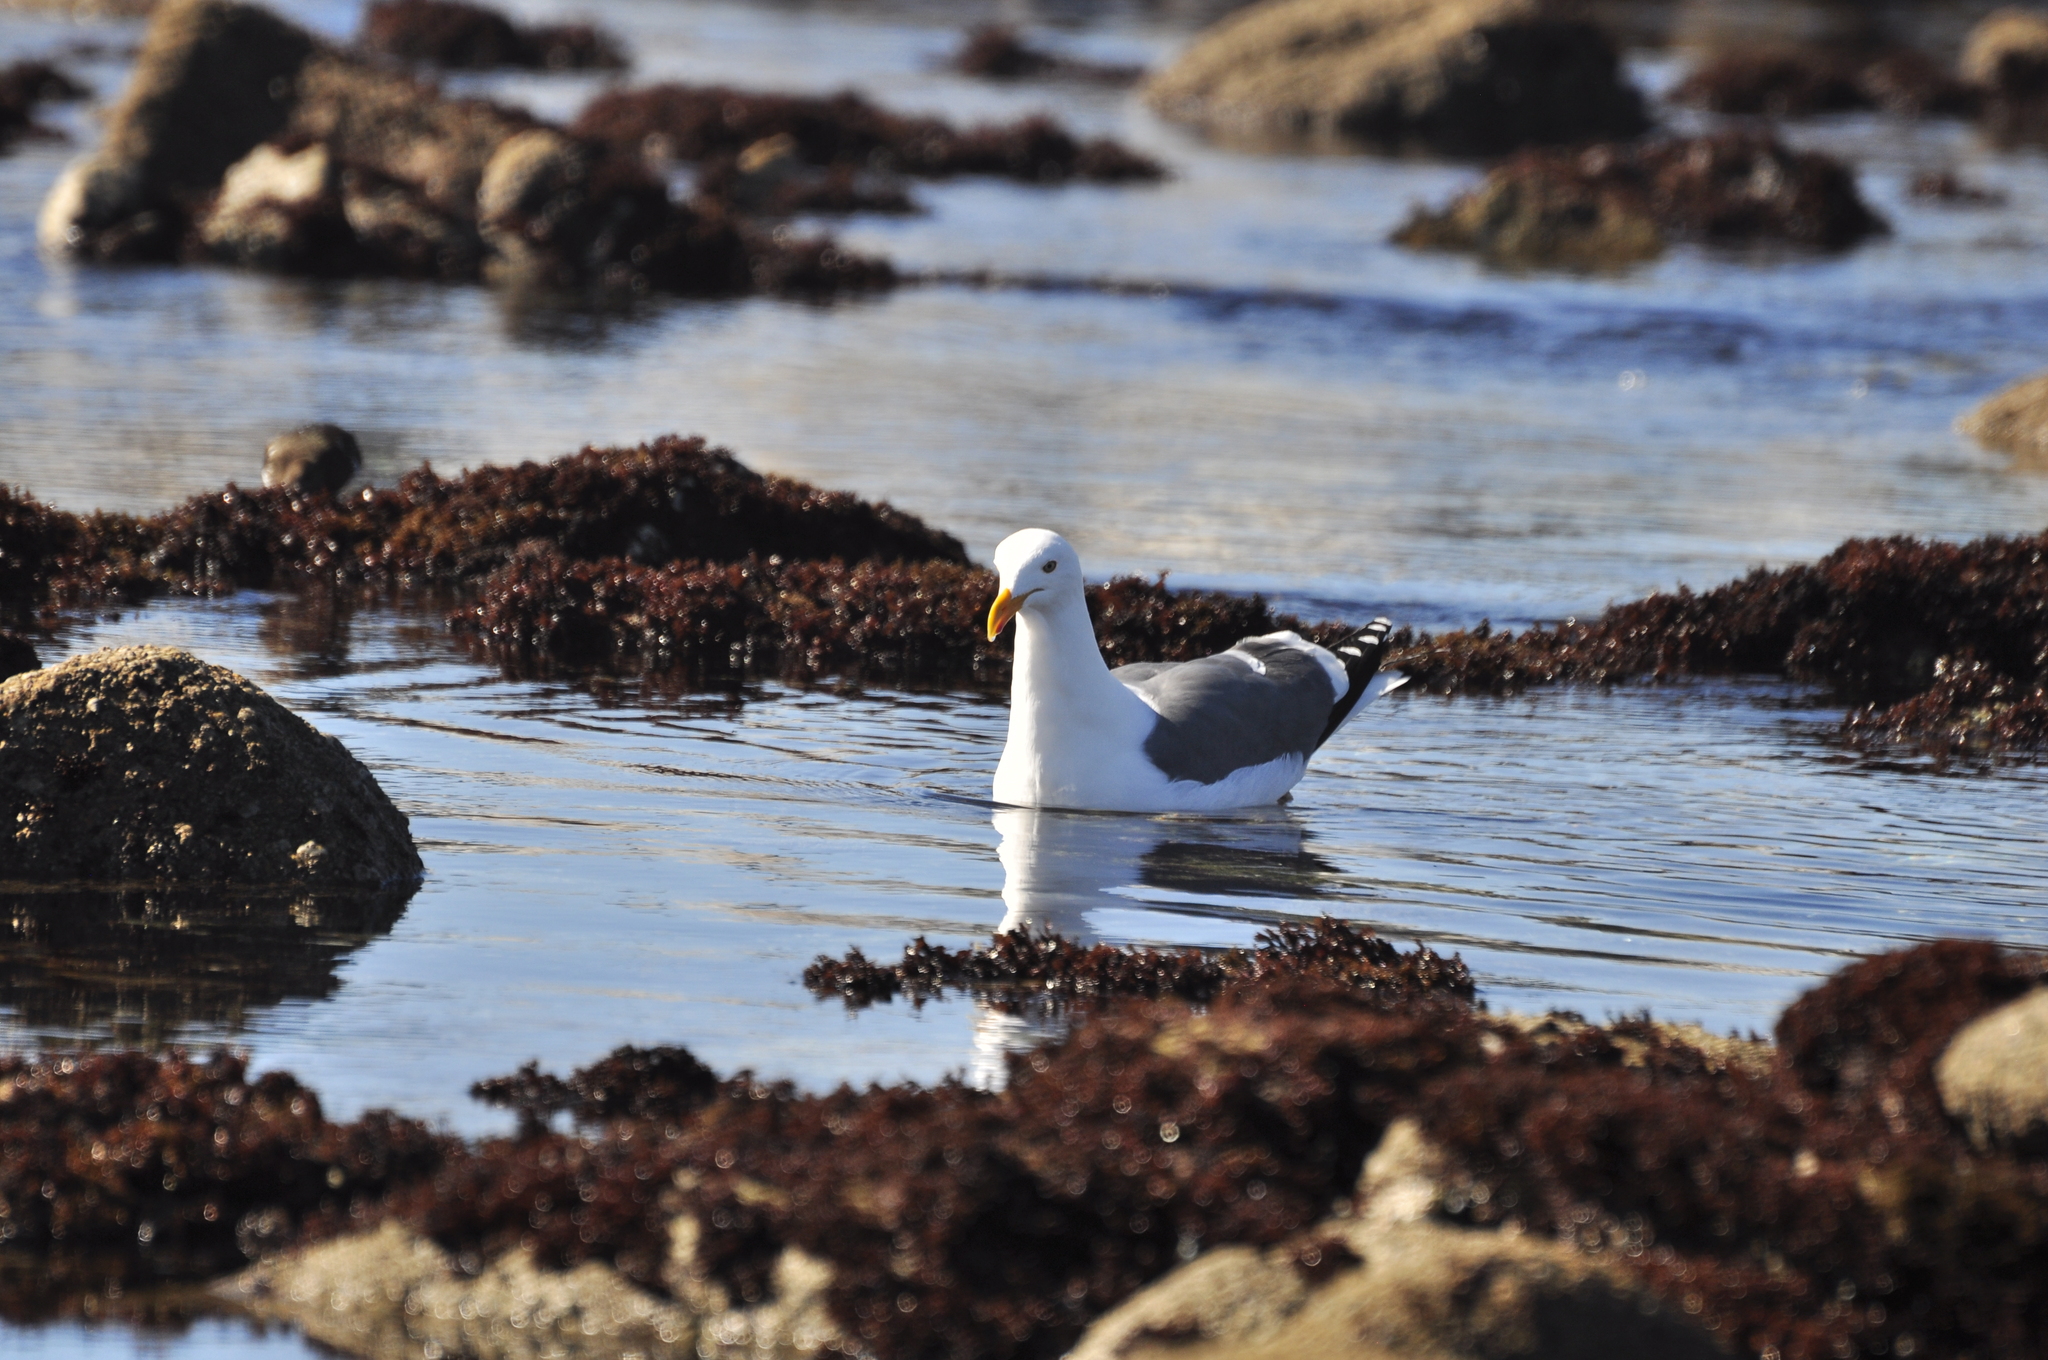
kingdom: Animalia
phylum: Chordata
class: Aves
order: Charadriiformes
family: Laridae
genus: Larus
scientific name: Larus occidentalis
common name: Western gull
